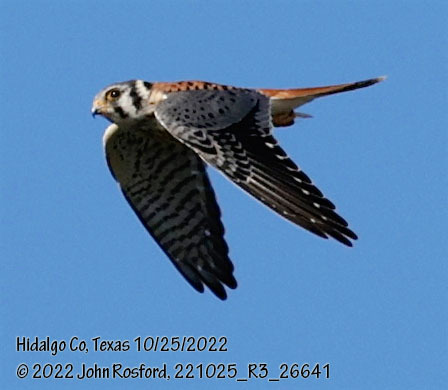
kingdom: Animalia
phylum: Chordata
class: Aves
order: Falconiformes
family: Falconidae
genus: Falco
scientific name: Falco sparverius
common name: American kestrel
